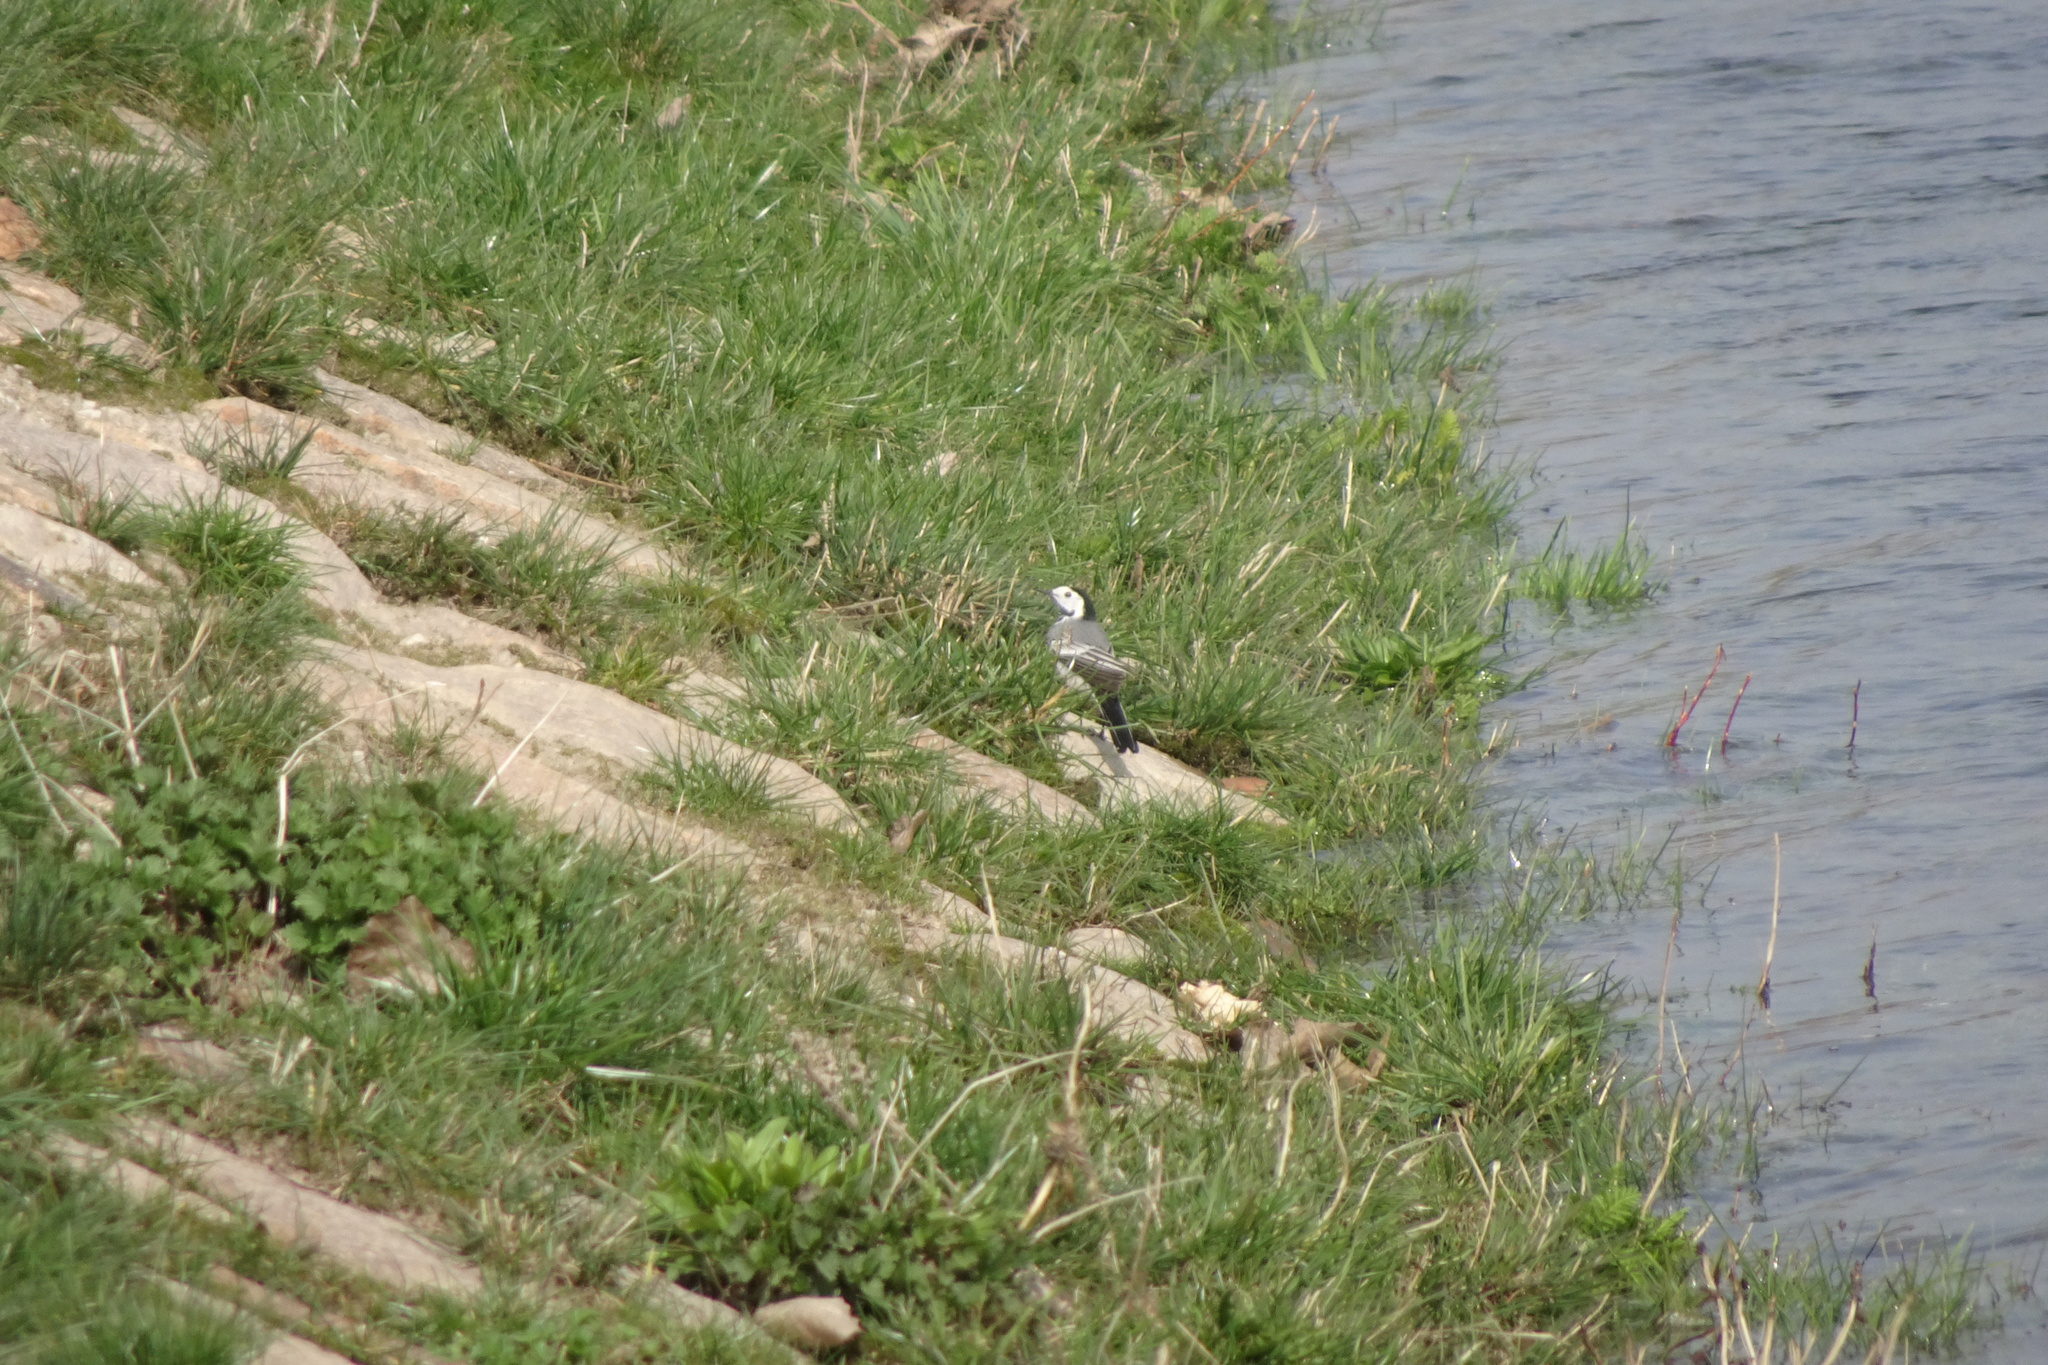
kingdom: Animalia
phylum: Chordata
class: Aves
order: Passeriformes
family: Motacillidae
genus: Motacilla
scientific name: Motacilla alba
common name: White wagtail
